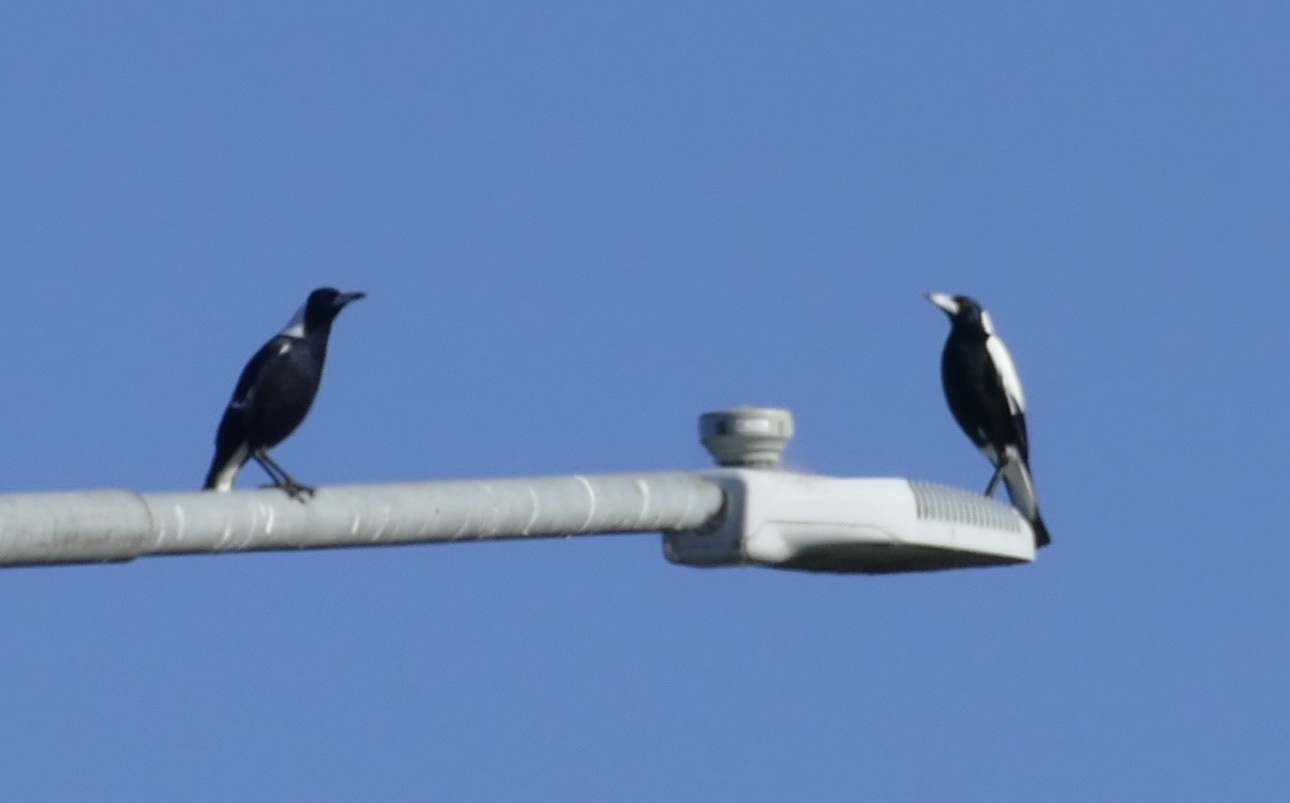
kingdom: Animalia
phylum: Chordata
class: Aves
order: Passeriformes
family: Cracticidae
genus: Gymnorhina
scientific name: Gymnorhina tibicen
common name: Australian magpie
